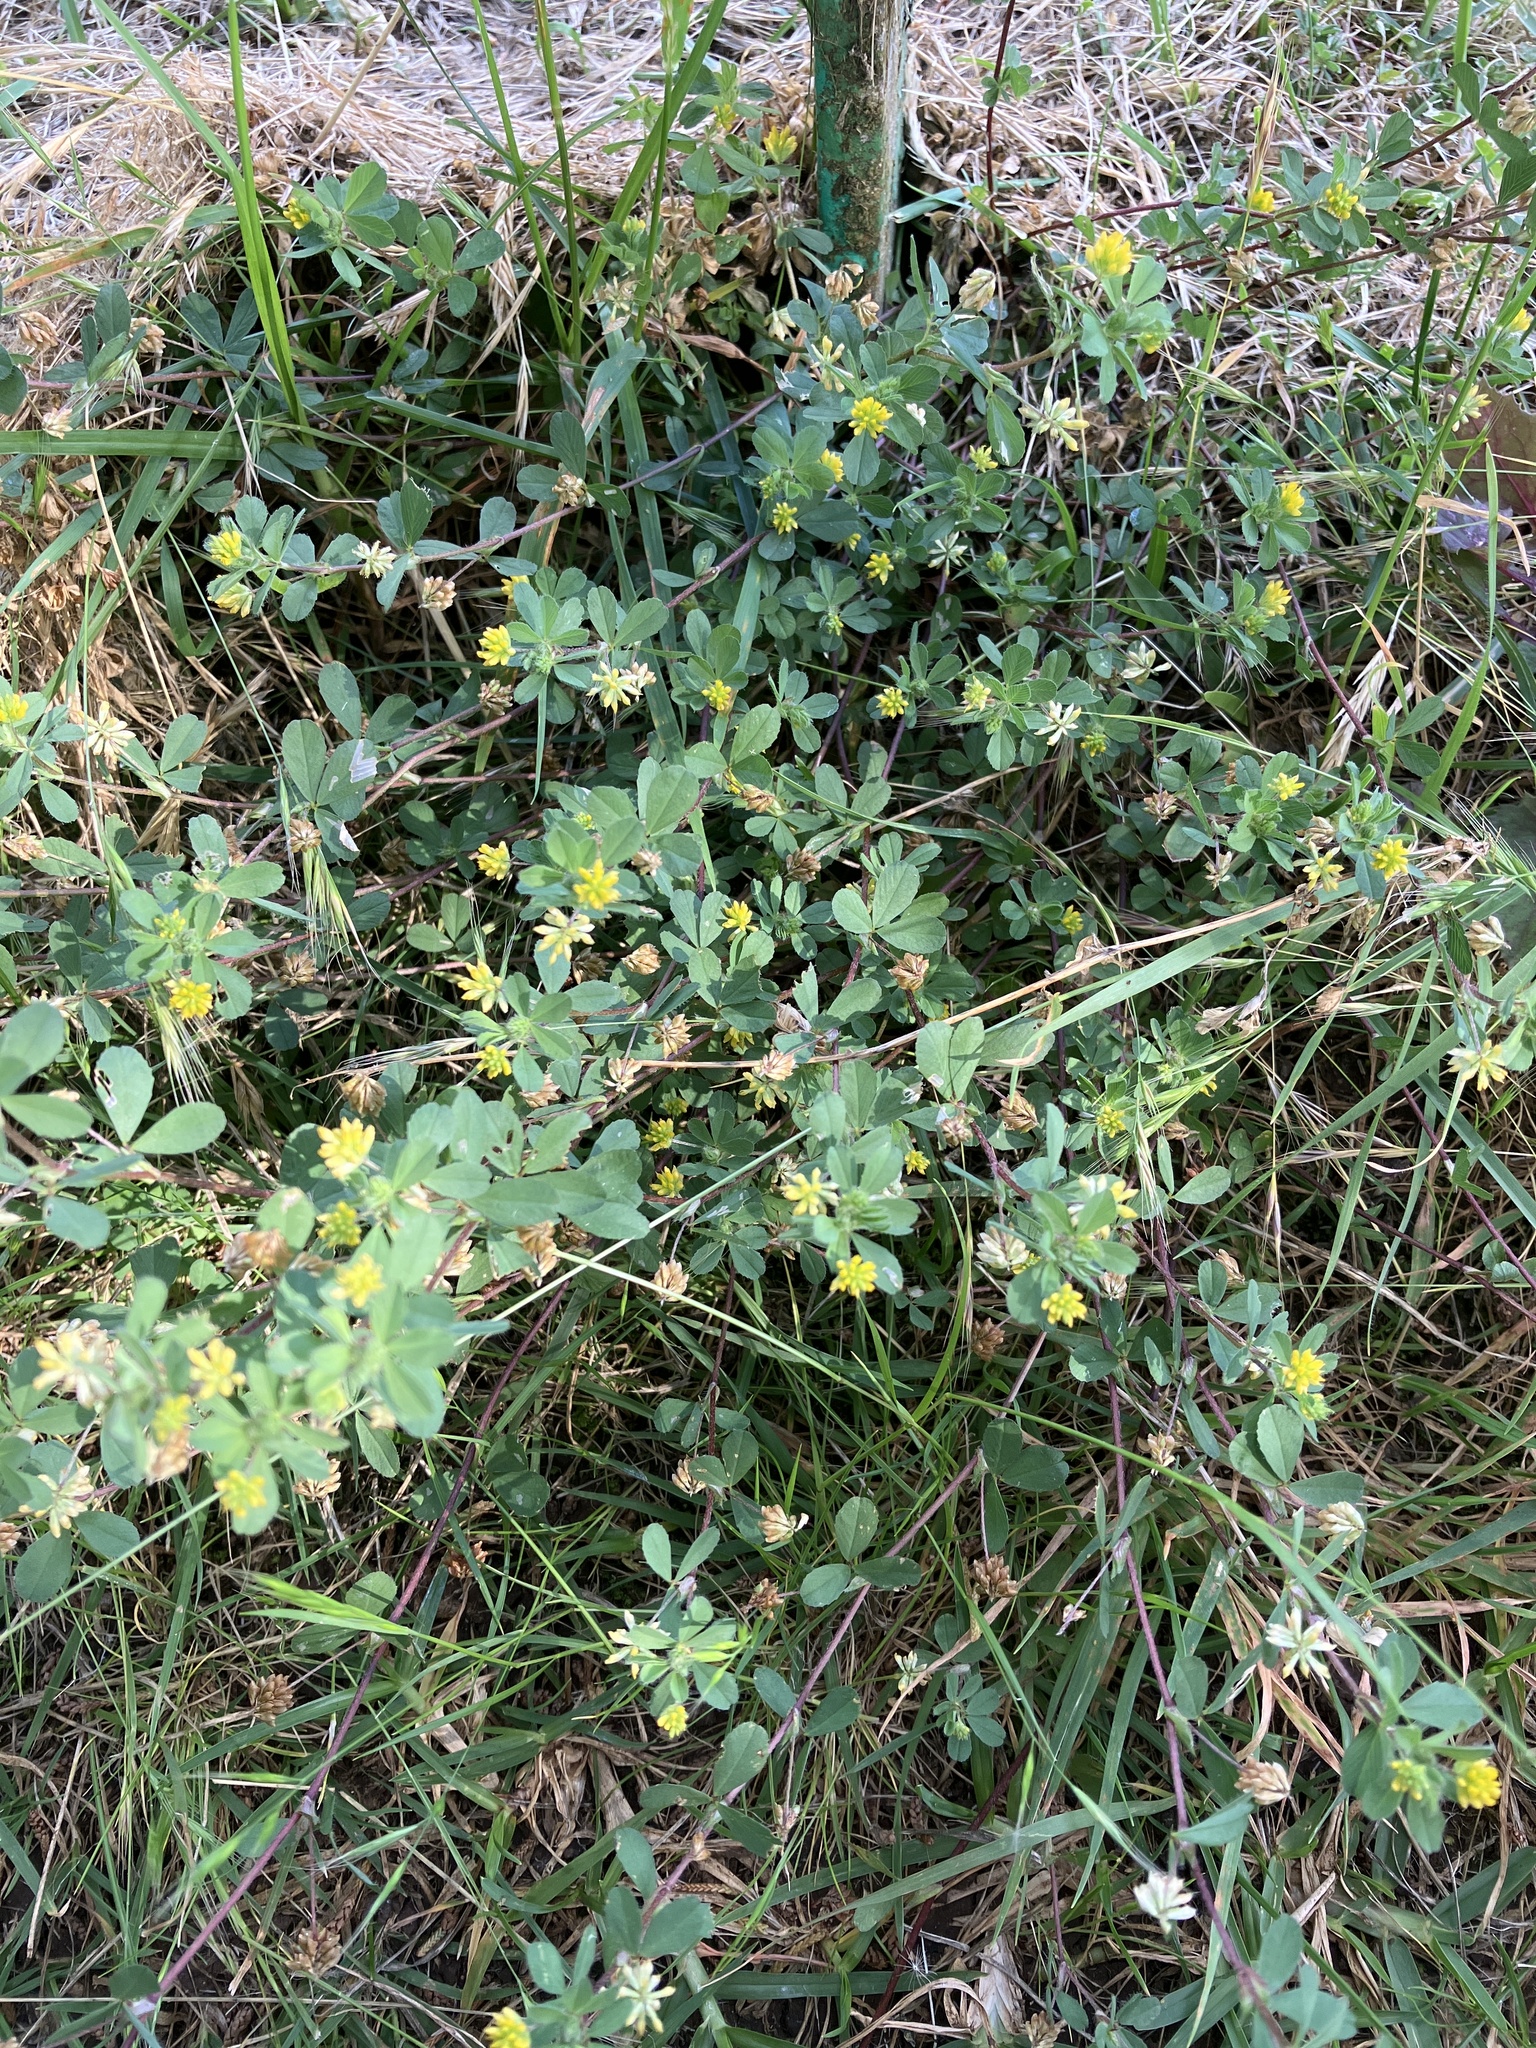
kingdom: Plantae
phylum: Tracheophyta
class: Magnoliopsida
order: Fabales
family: Fabaceae
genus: Trifolium
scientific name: Trifolium dubium
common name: Suckling clover
